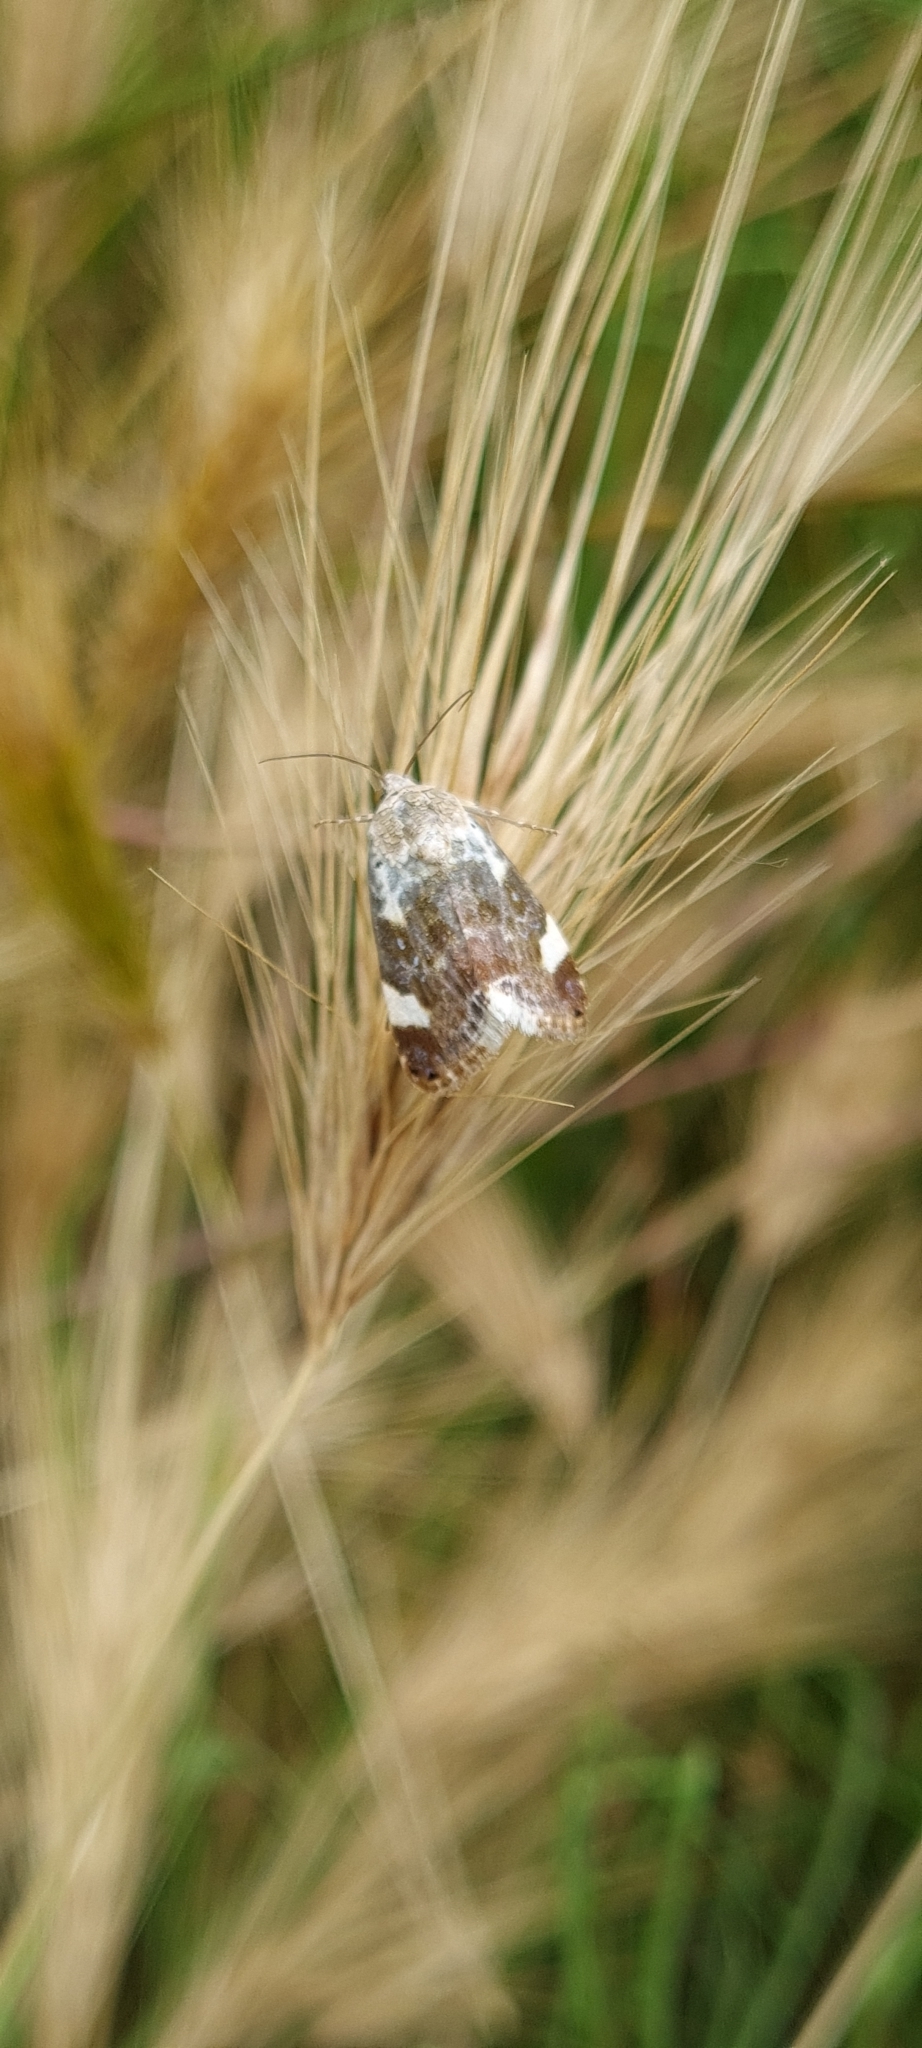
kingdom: Animalia
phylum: Arthropoda
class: Insecta
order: Lepidoptera
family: Noctuidae
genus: Acontia
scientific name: Acontia lucida
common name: Pale shoulder
